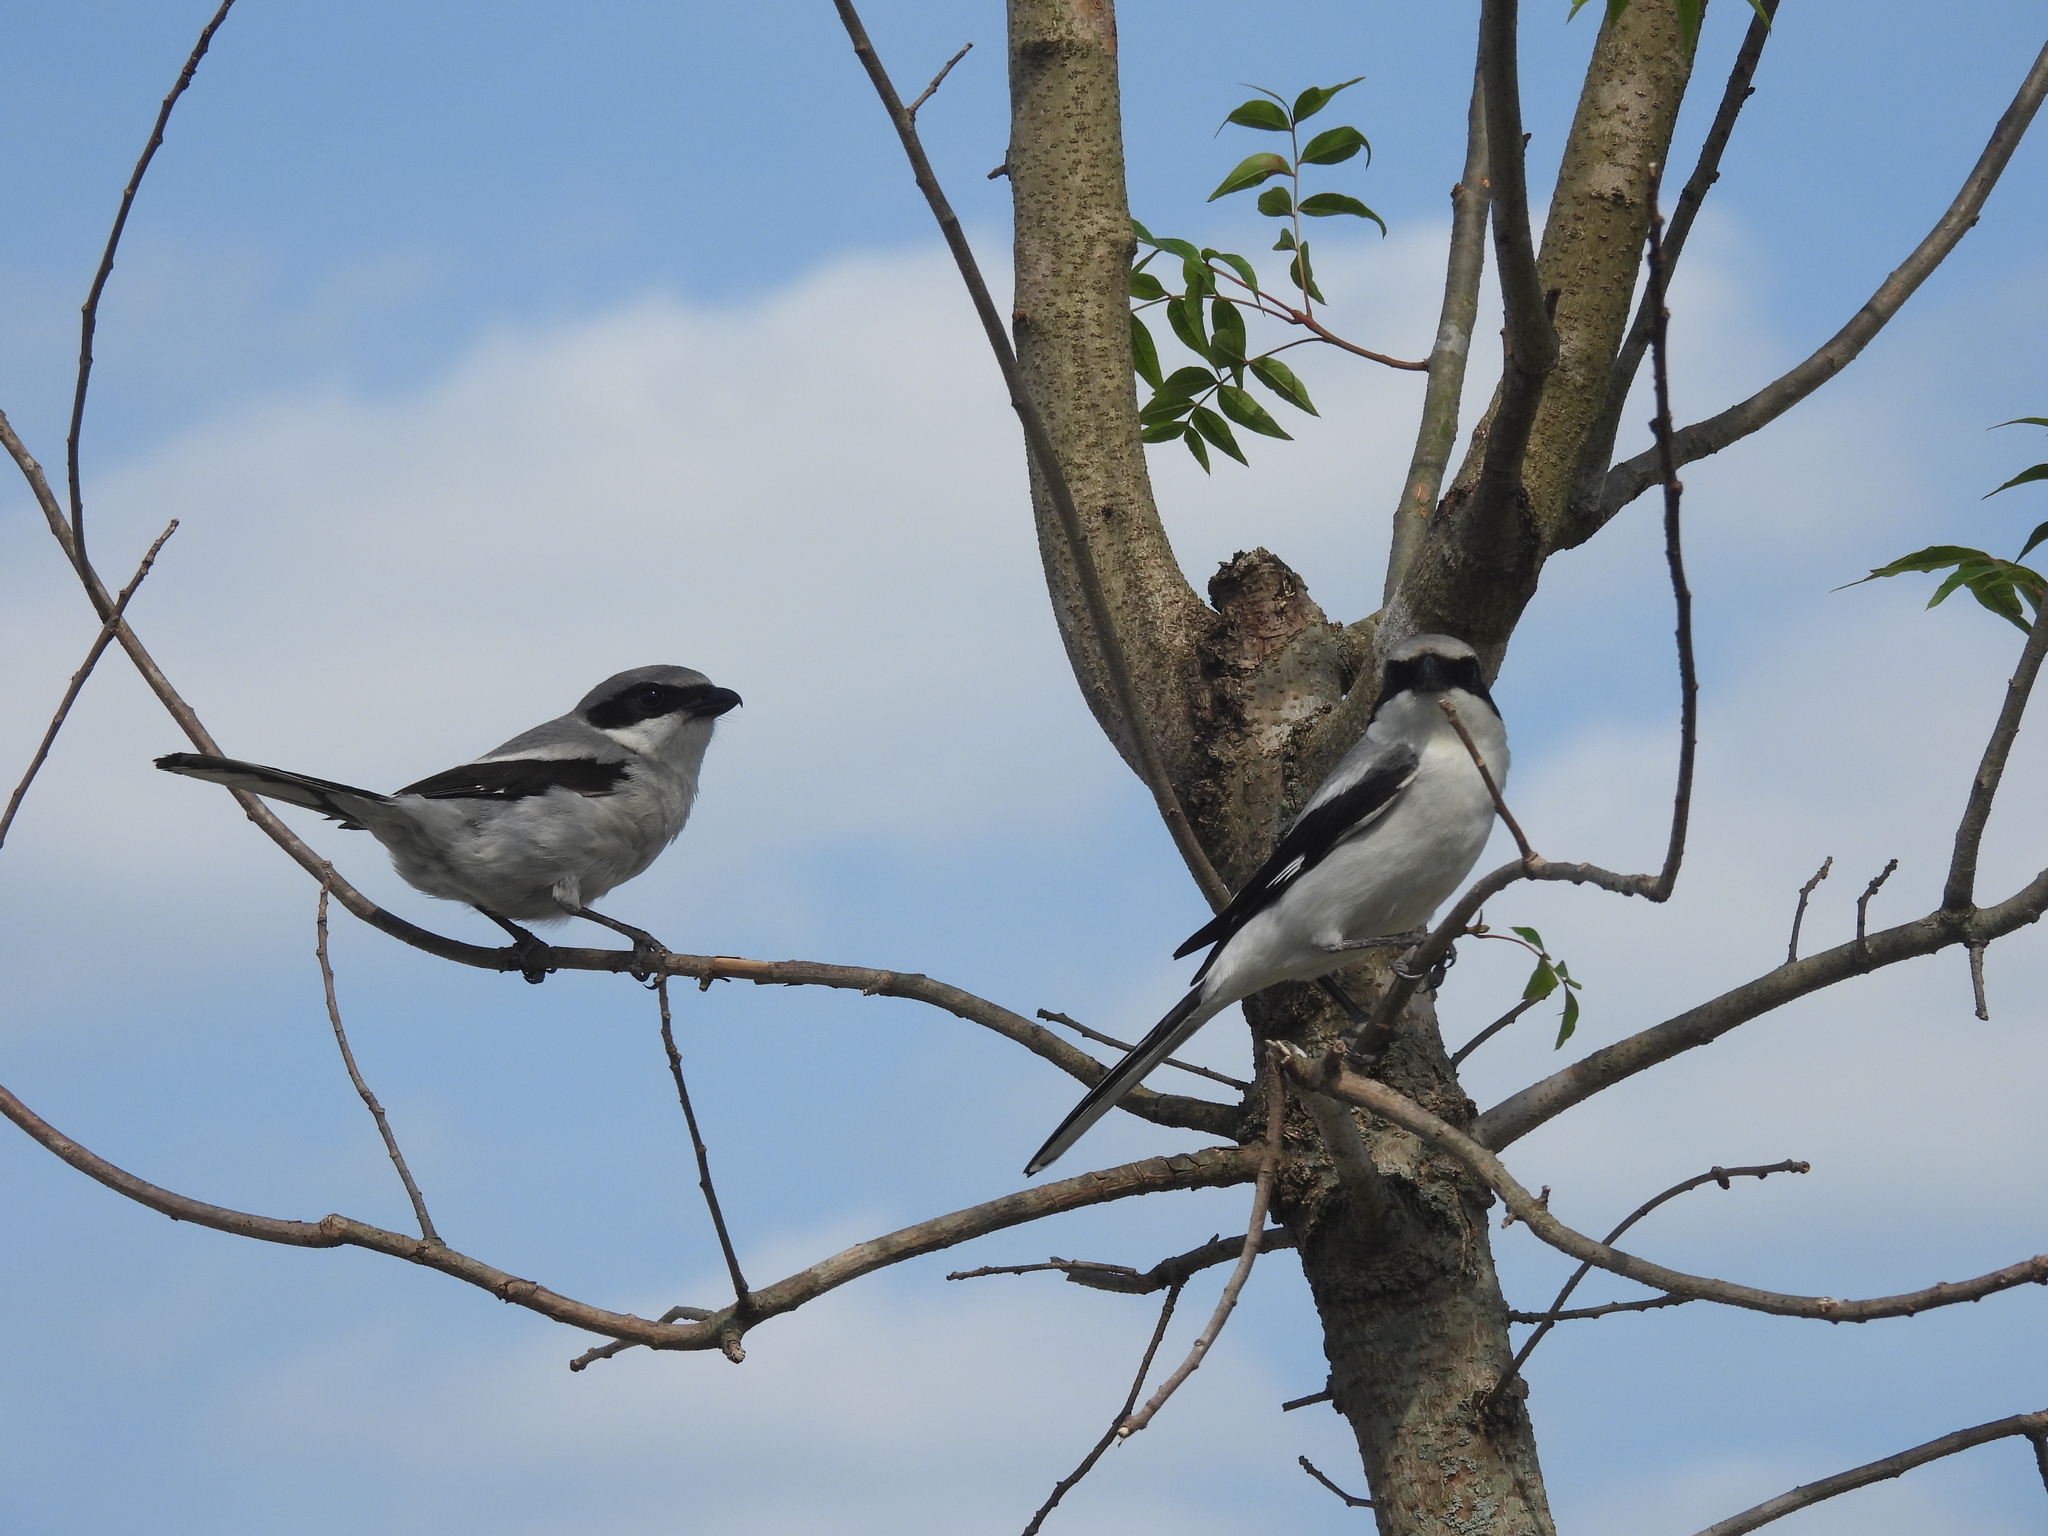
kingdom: Animalia
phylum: Chordata
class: Aves
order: Passeriformes
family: Laniidae
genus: Lanius
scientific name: Lanius ludovicianus
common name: Loggerhead shrike
